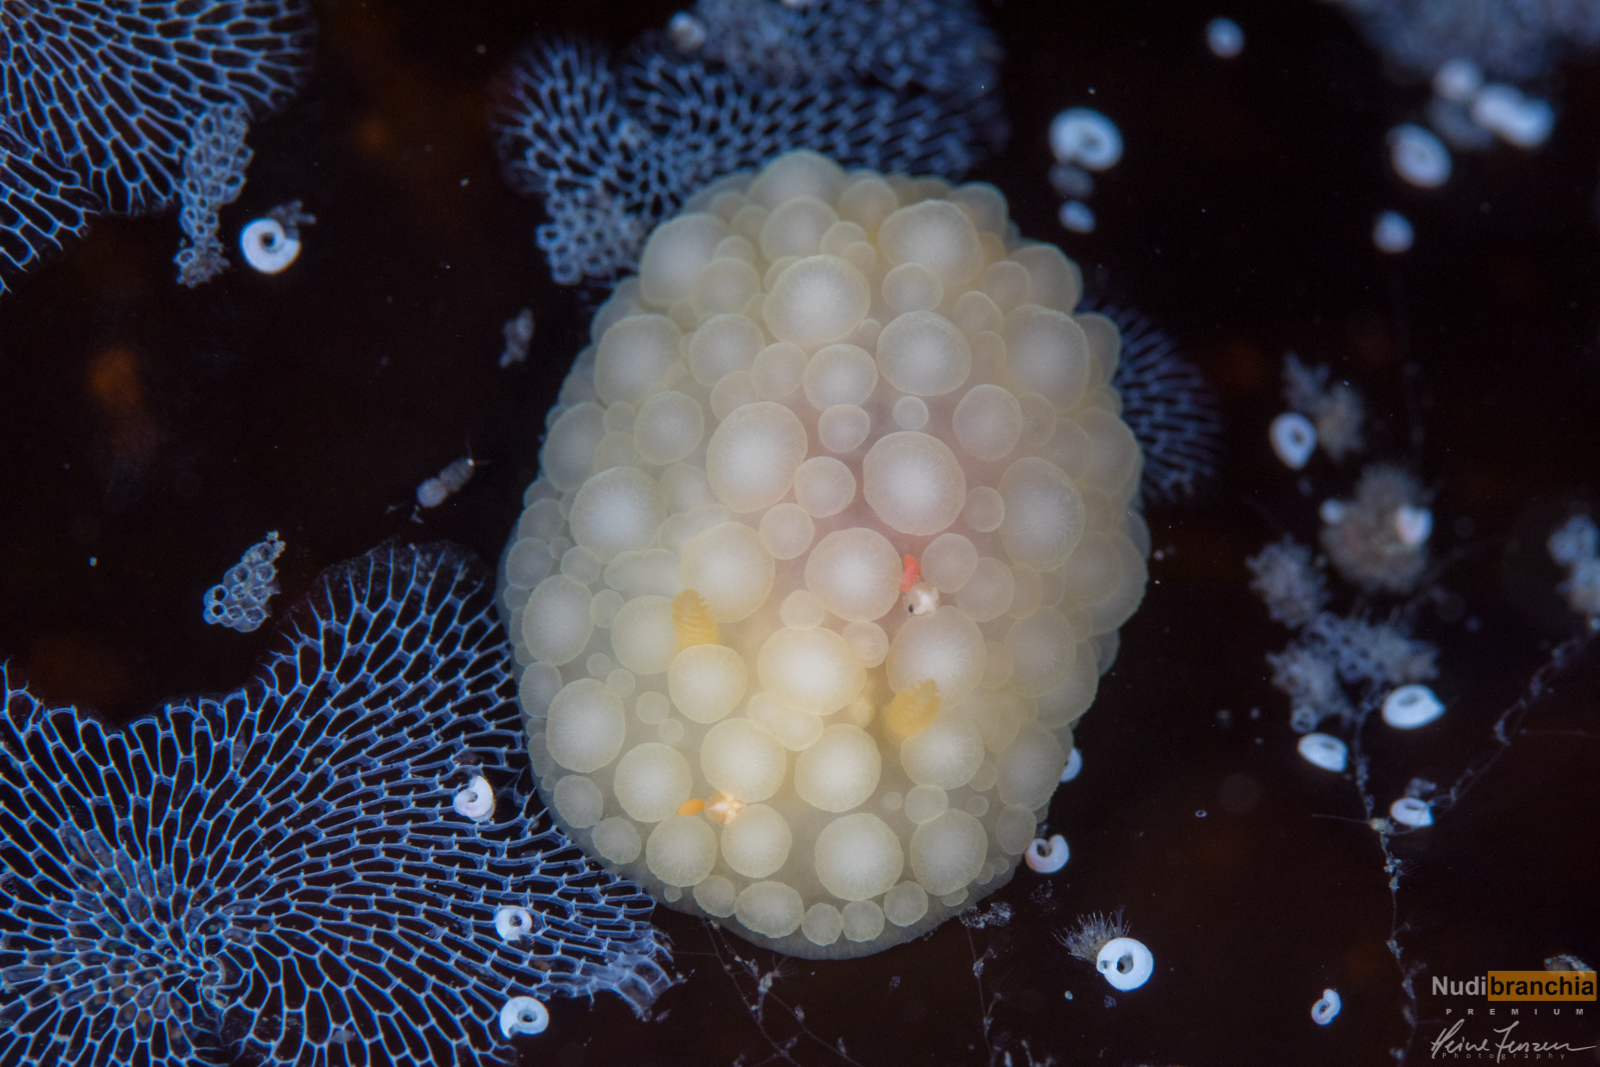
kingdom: Animalia
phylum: Mollusca
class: Gastropoda
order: Nudibranchia
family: Onchidorididae
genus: Adalaria
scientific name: Adalaria loveni
